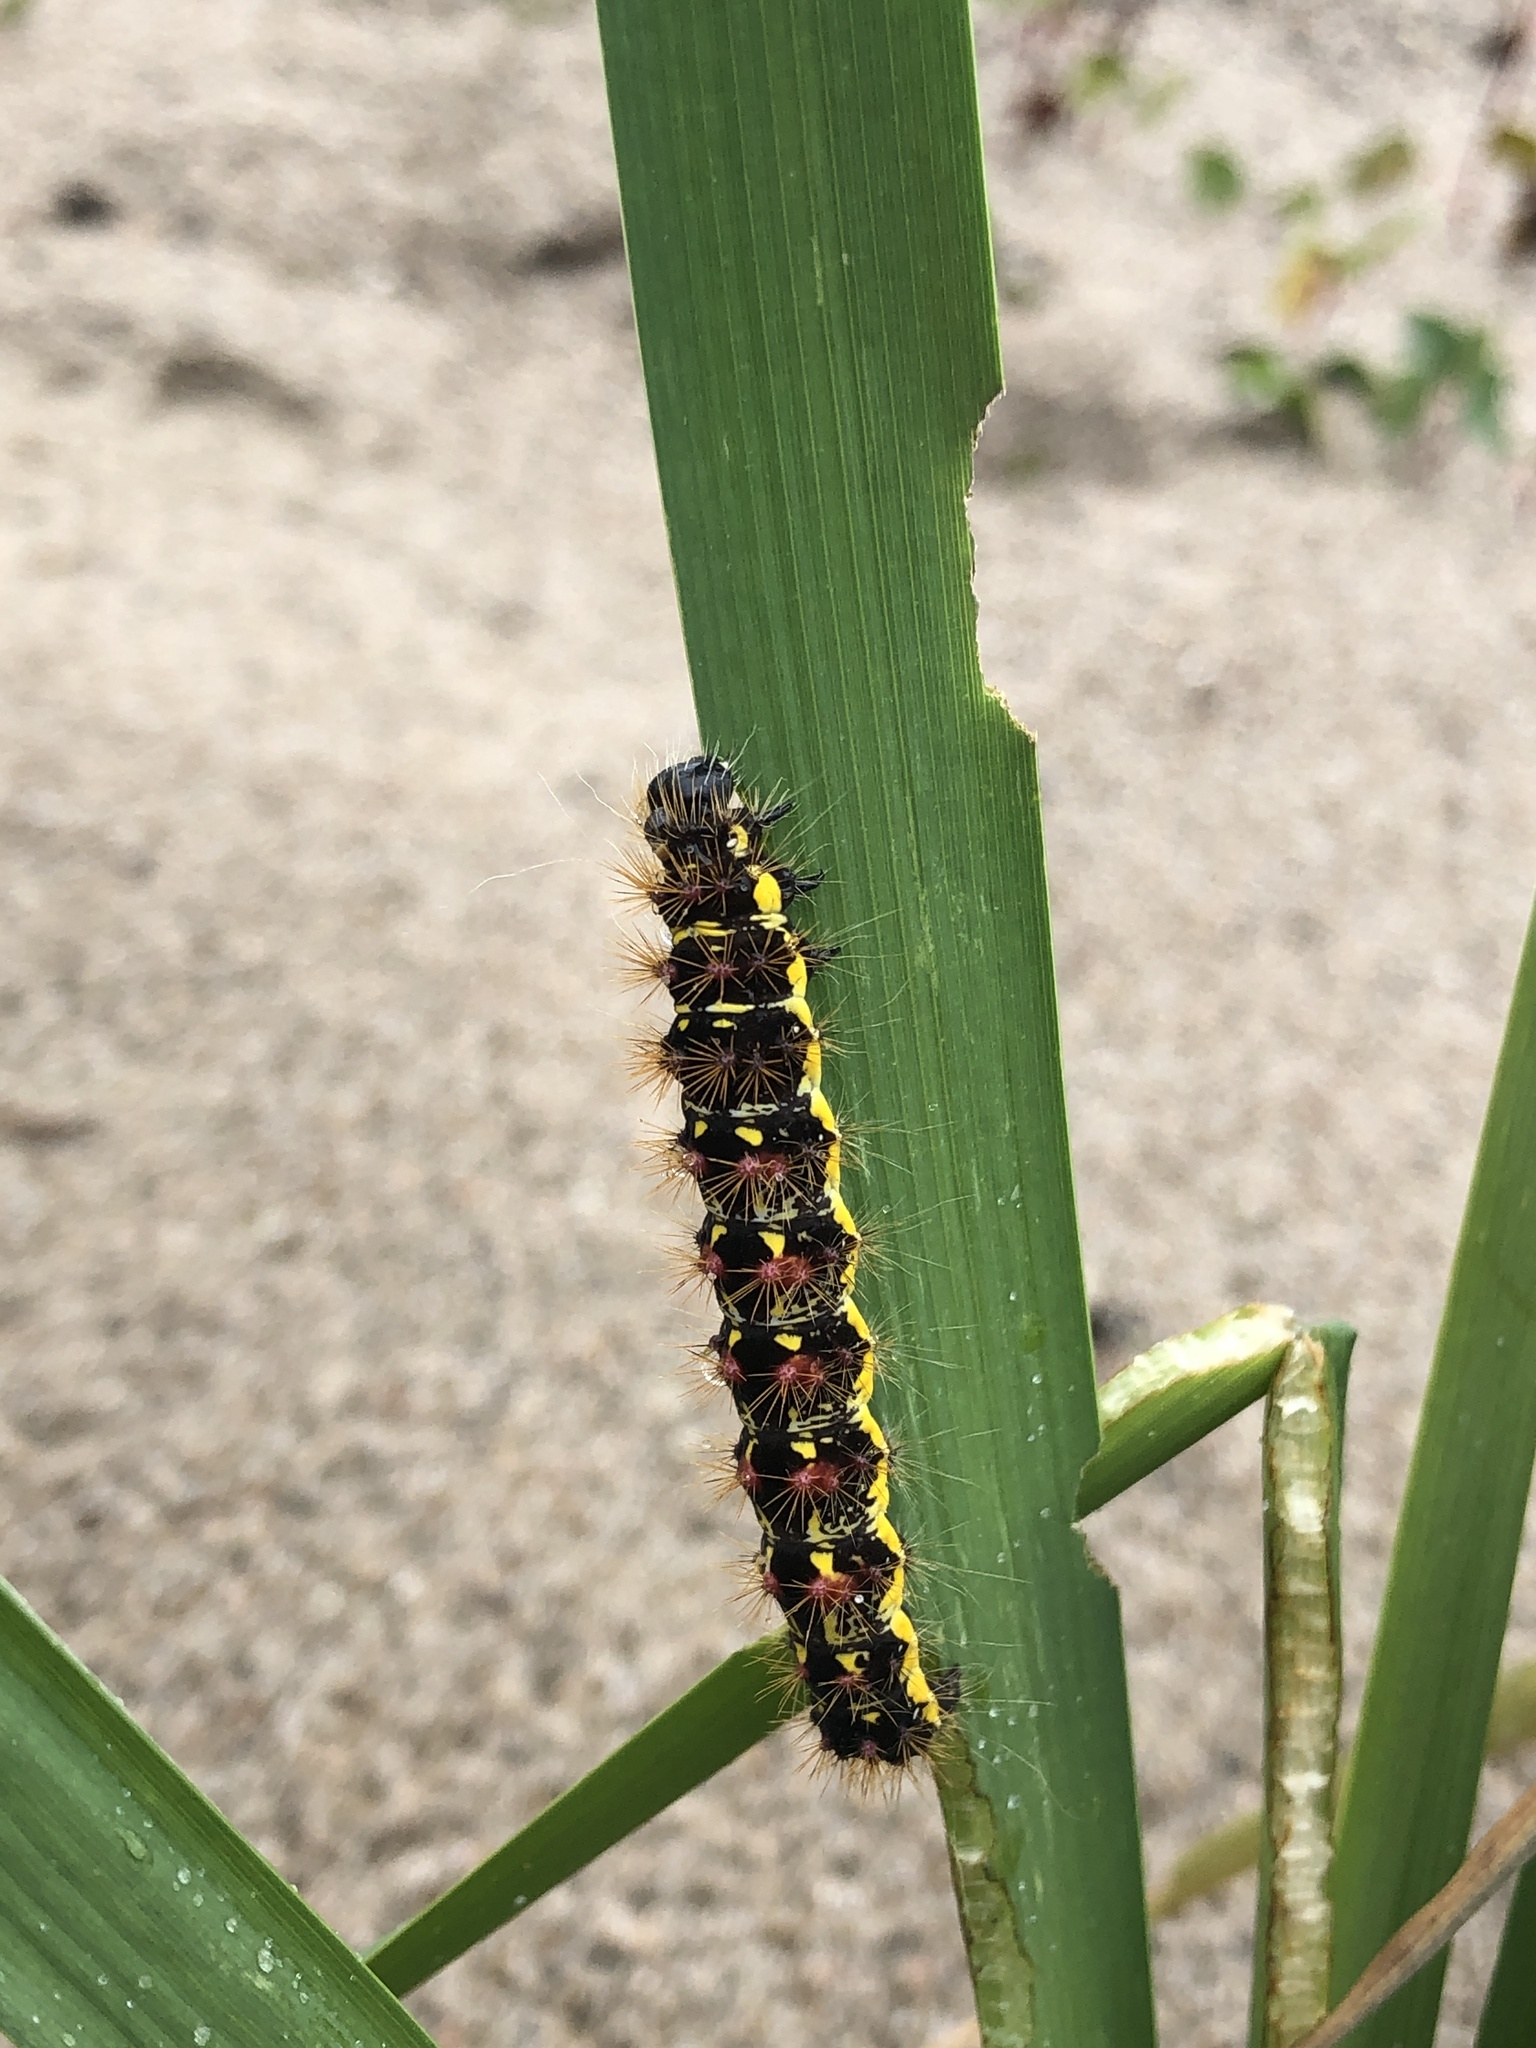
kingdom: Animalia
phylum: Arthropoda
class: Insecta
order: Lepidoptera
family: Noctuidae
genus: Acronicta
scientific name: Acronicta oblinita
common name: Smeared dagger
